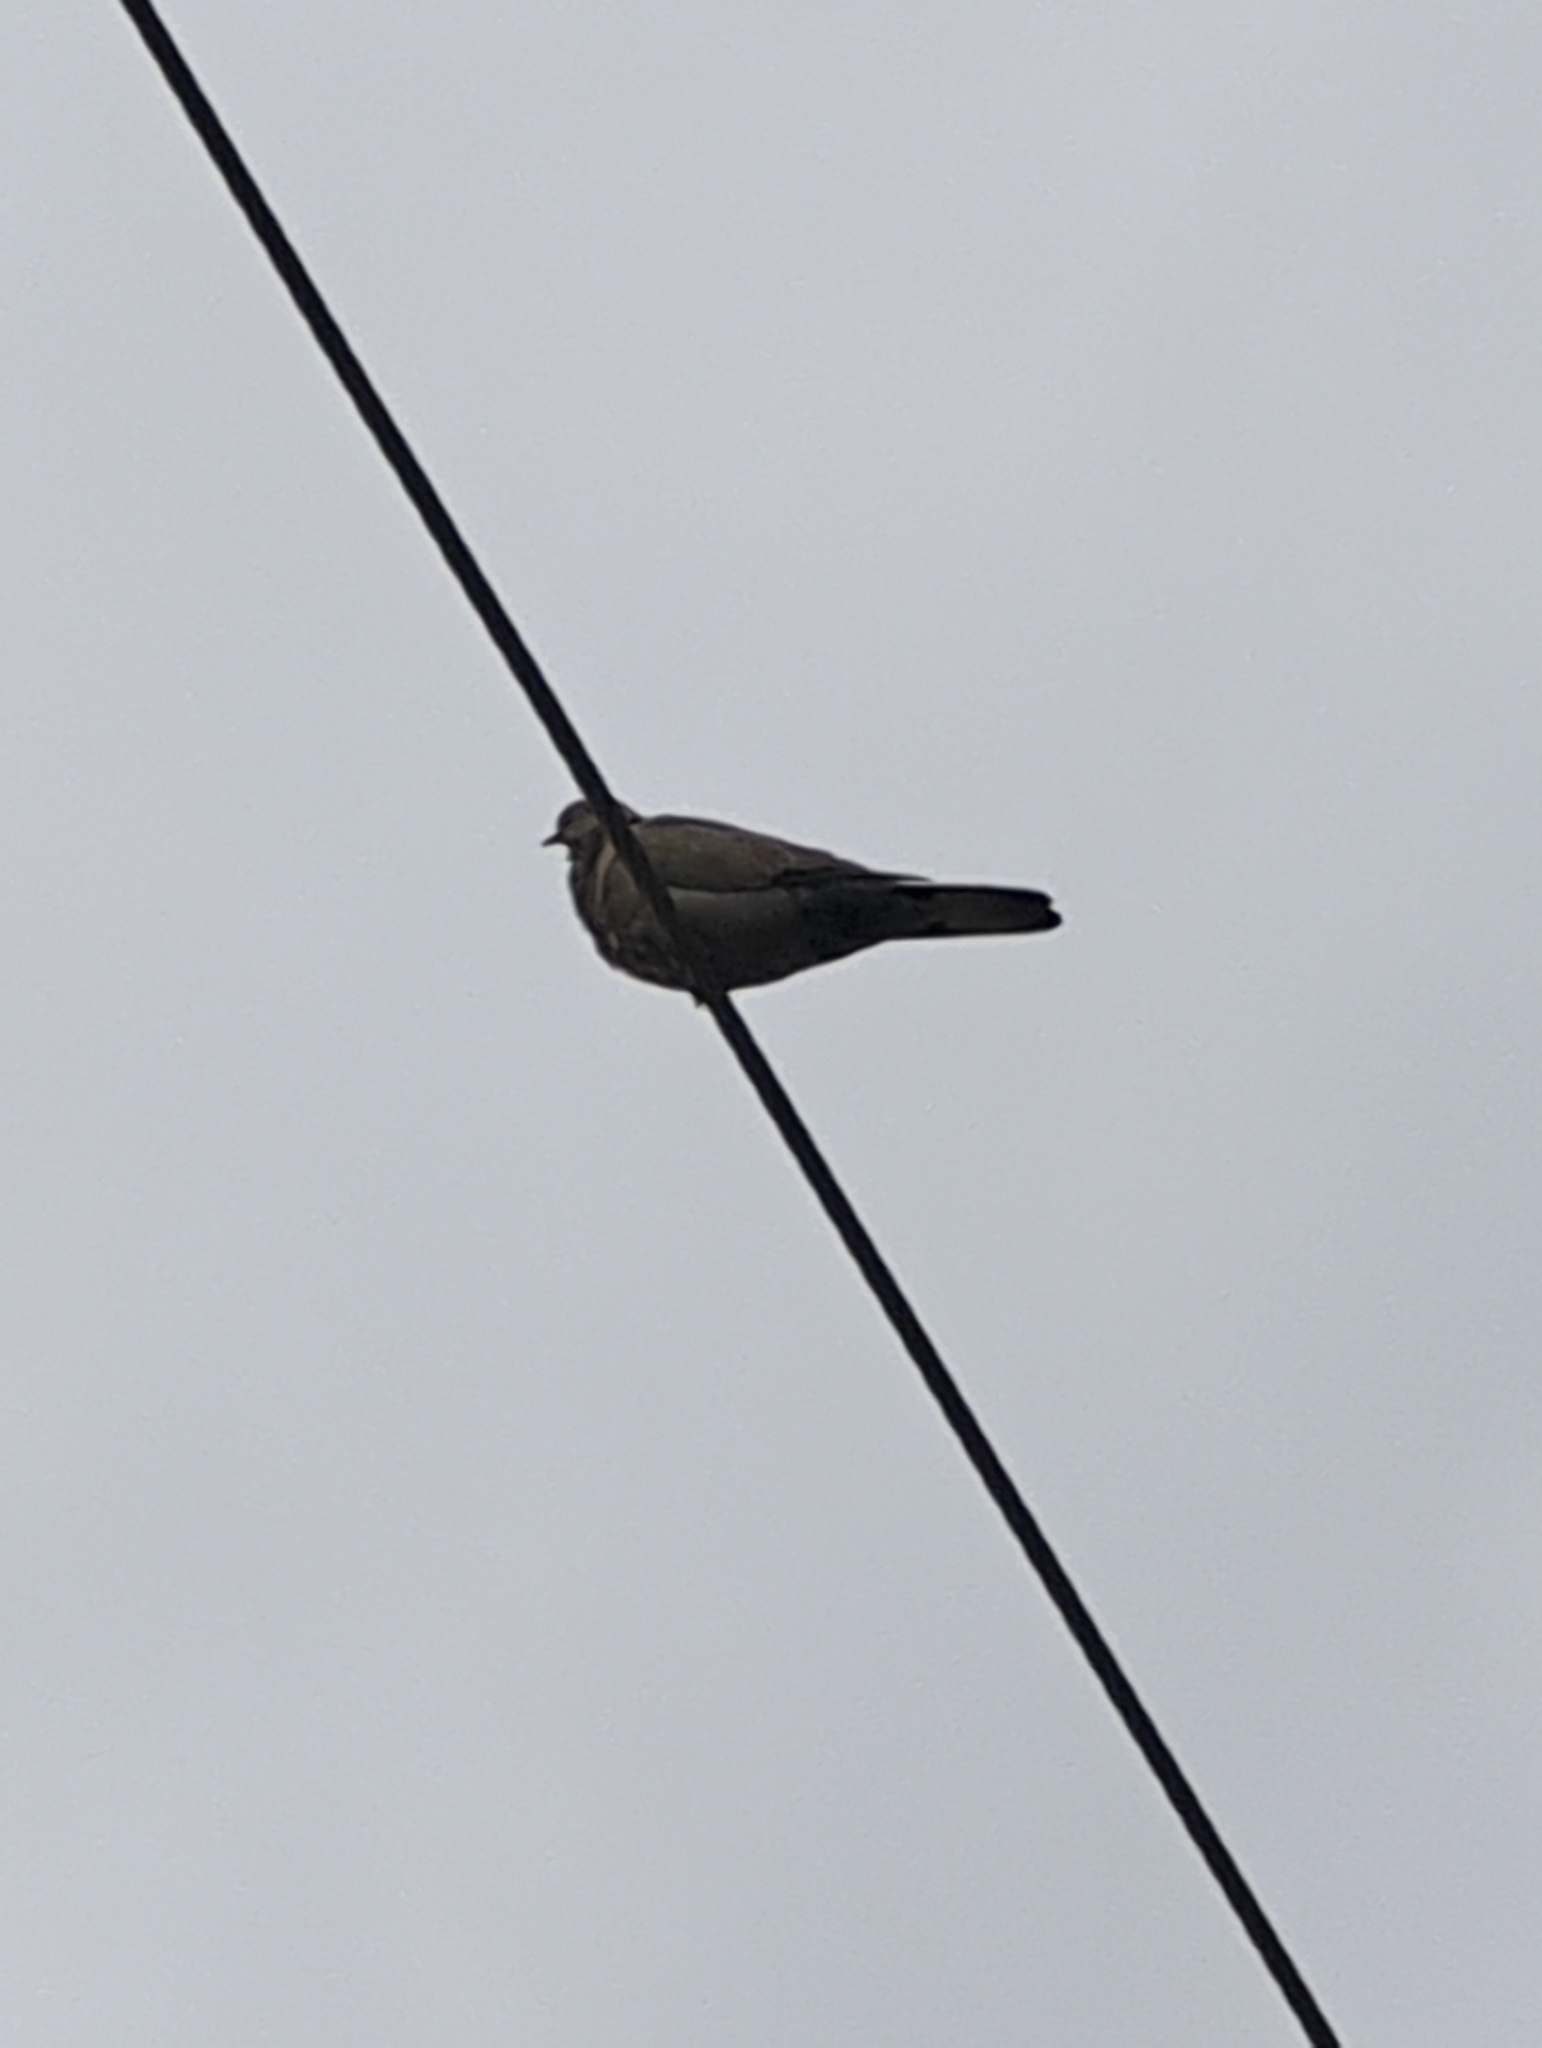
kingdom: Animalia
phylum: Chordata
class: Aves
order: Columbiformes
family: Columbidae
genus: Zenaida
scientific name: Zenaida macroura
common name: Mourning dove
